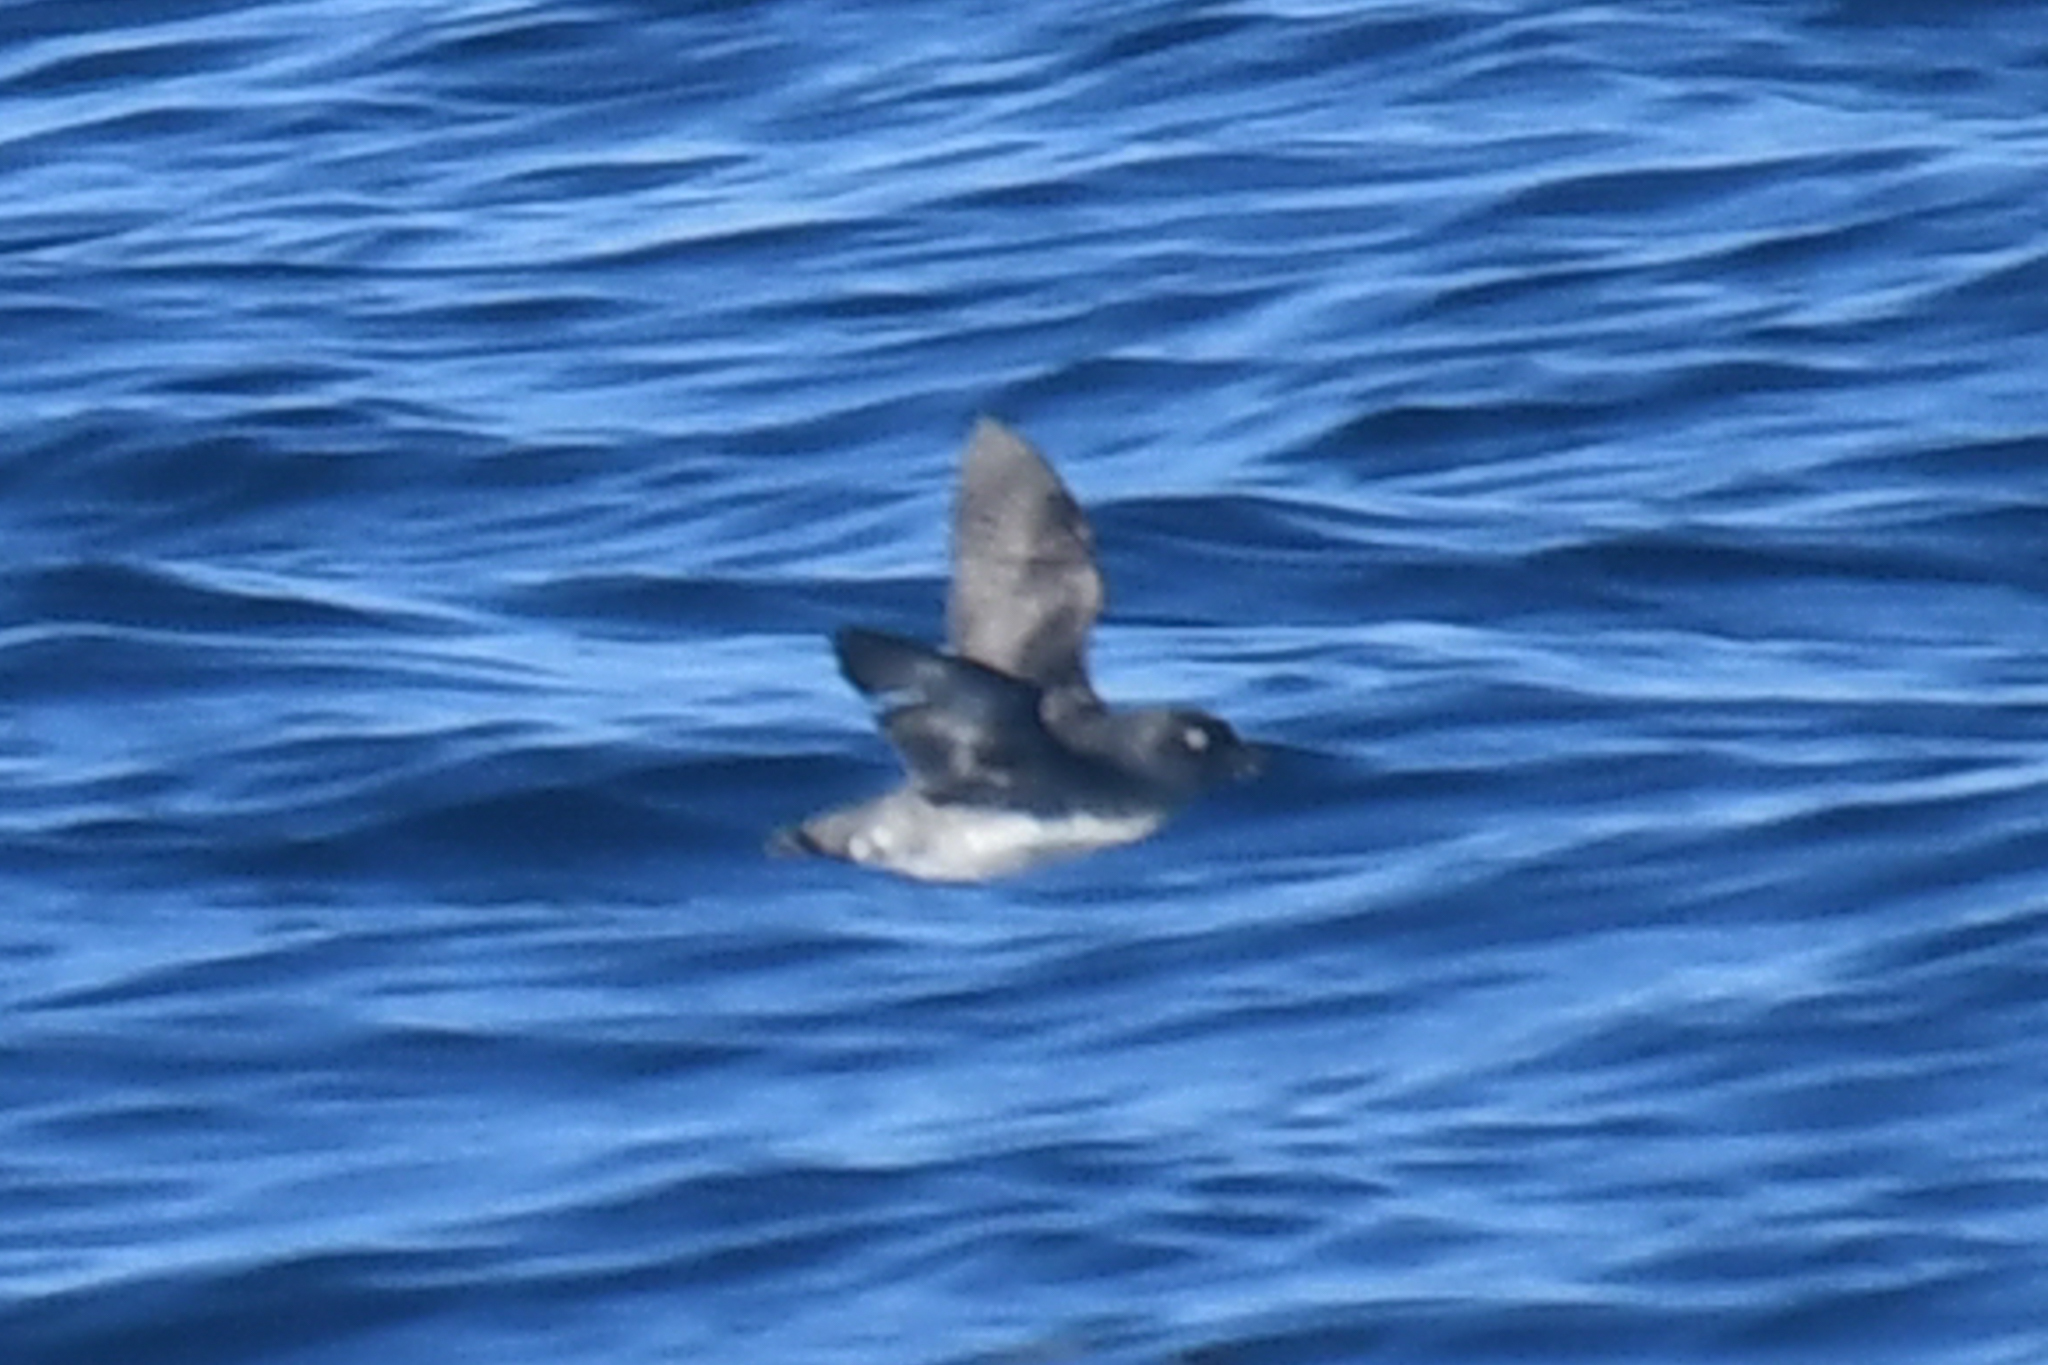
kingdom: Animalia
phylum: Chordata
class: Aves
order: Charadriiformes
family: Alcidae
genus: Ptychoramphus
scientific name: Ptychoramphus aleuticus
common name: Cassin's auklet
